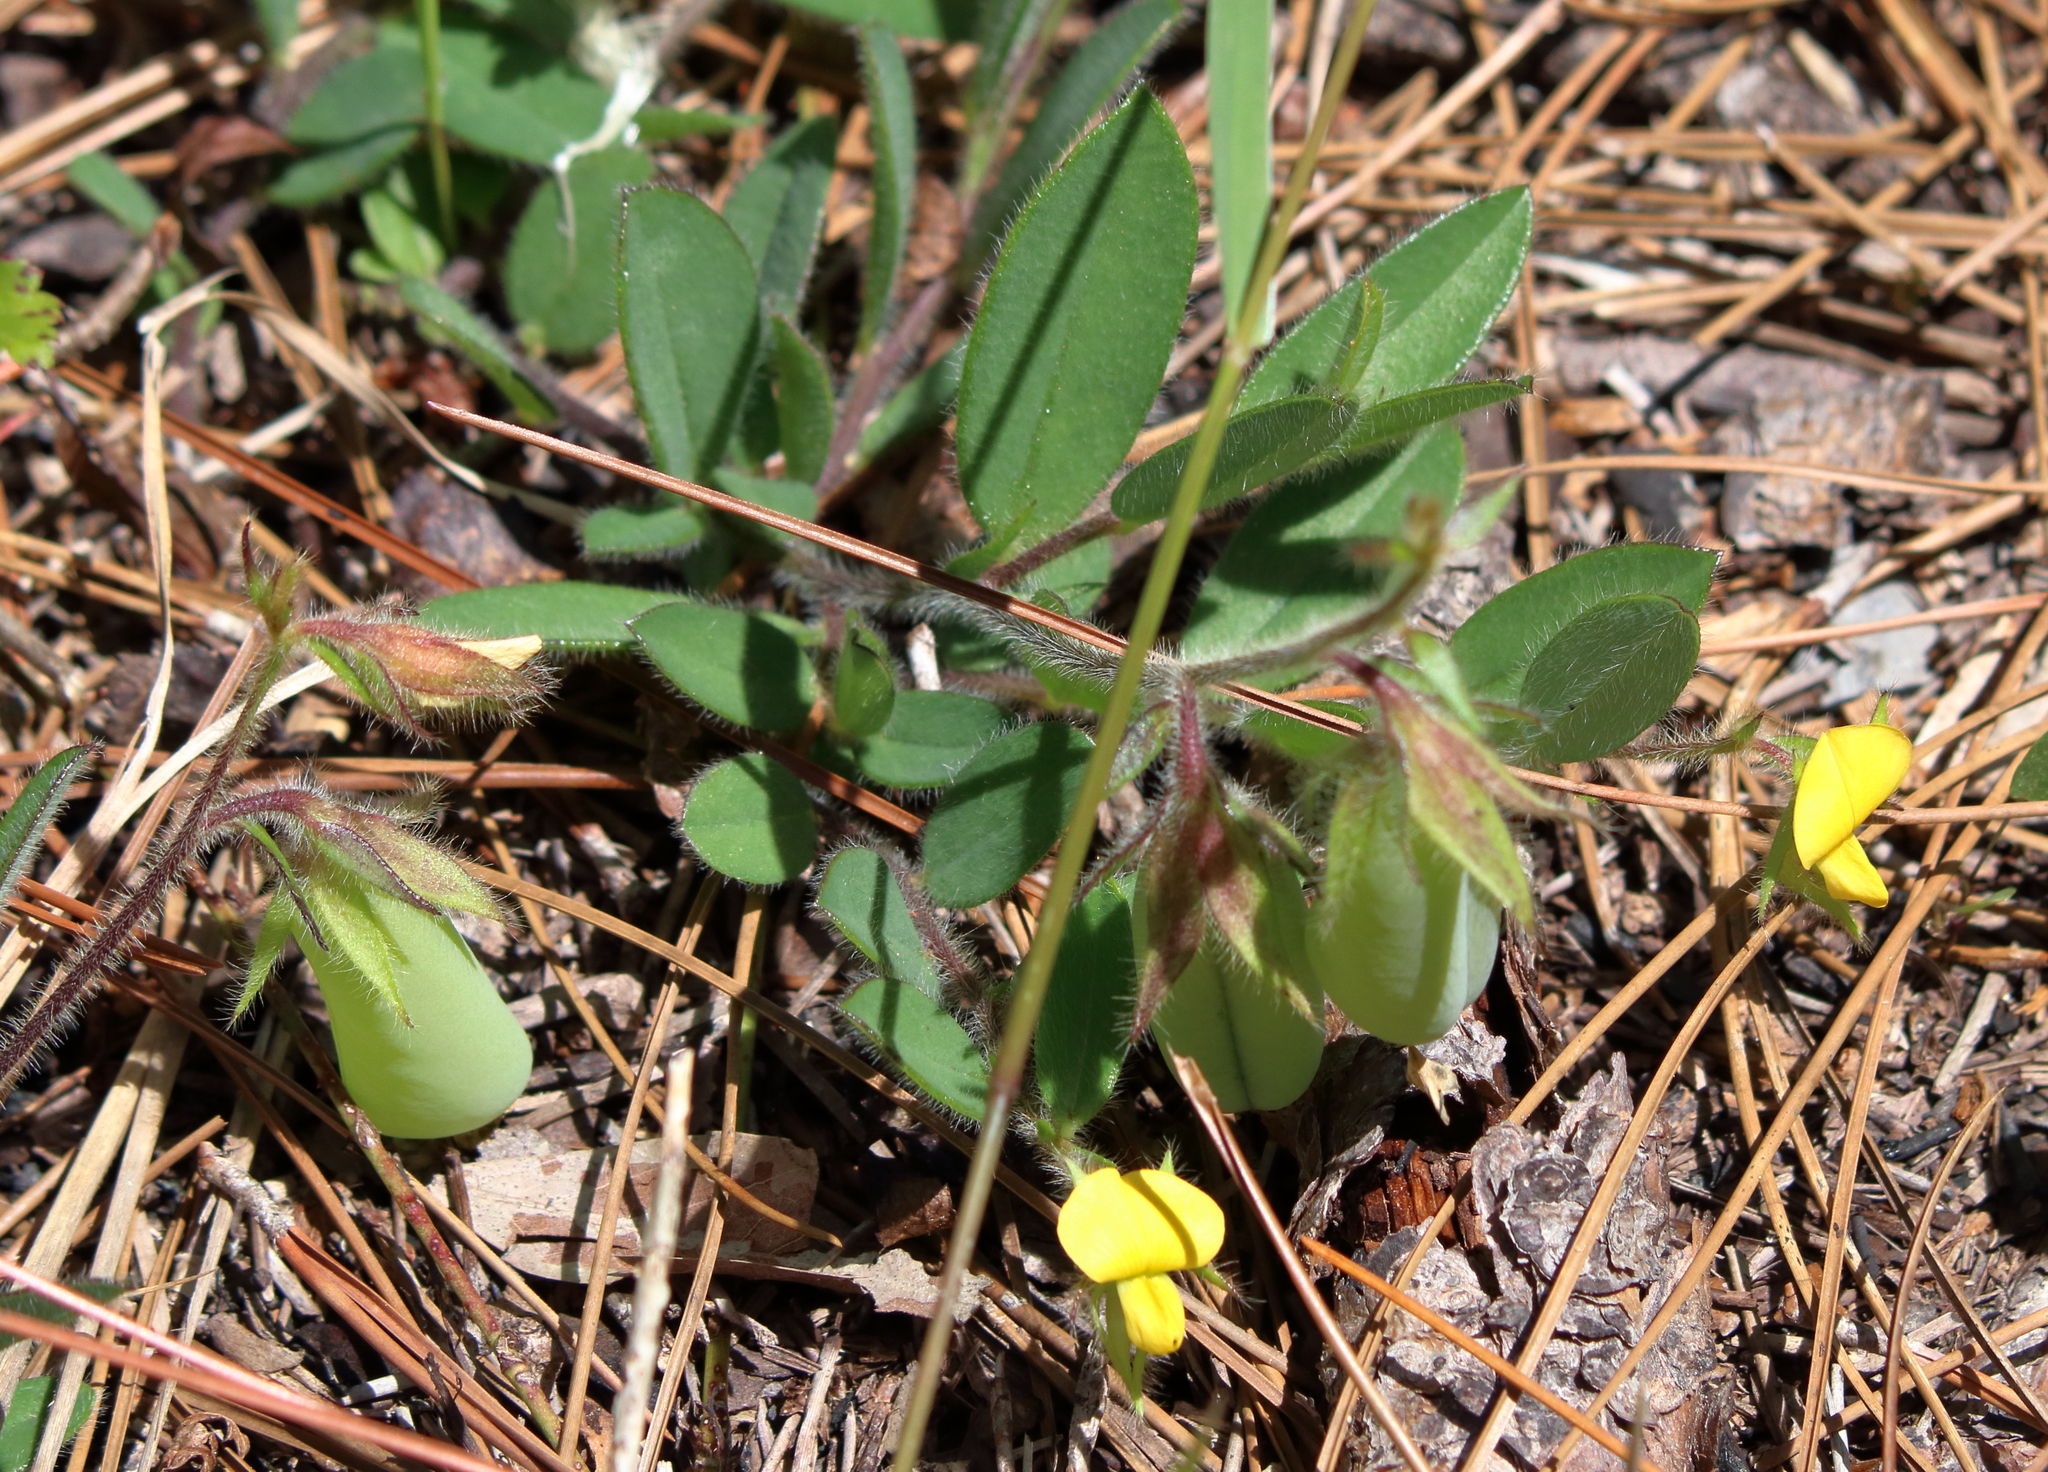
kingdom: Plantae
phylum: Tracheophyta
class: Magnoliopsida
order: Fabales
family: Fabaceae
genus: Crotalaria
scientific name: Crotalaria rotundifolia
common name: Prostrate rattlebox
